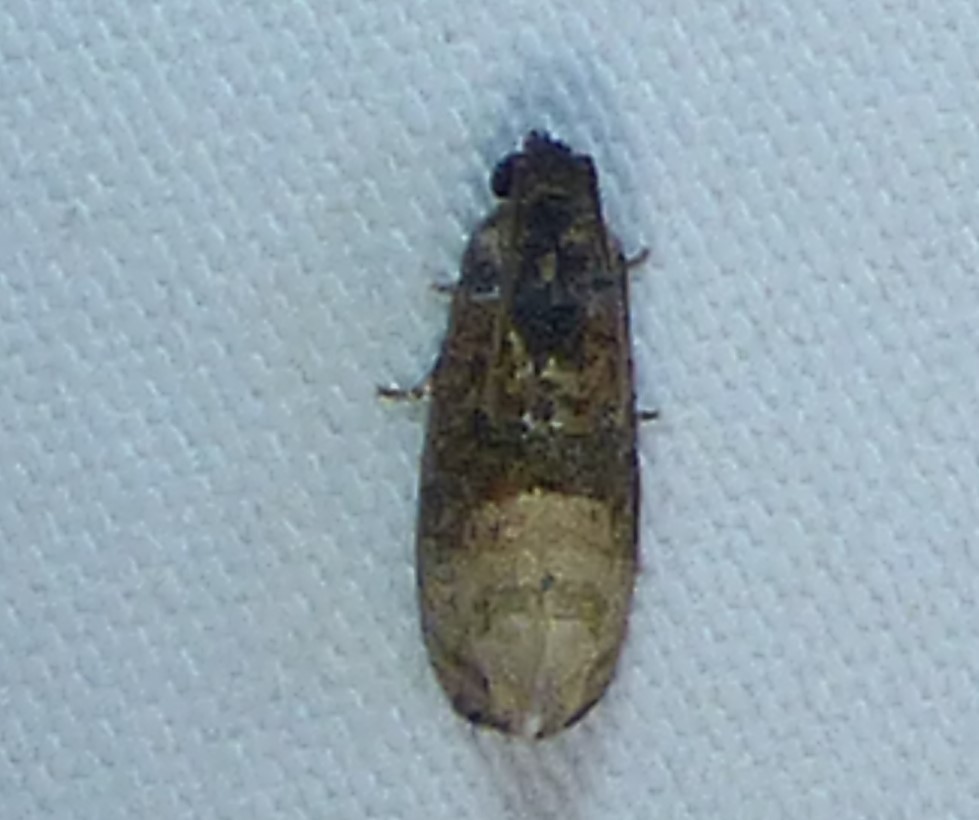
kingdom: Animalia
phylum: Arthropoda
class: Insecta
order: Lepidoptera
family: Tortricidae
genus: Ecdytolopha
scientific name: Ecdytolopha mana
